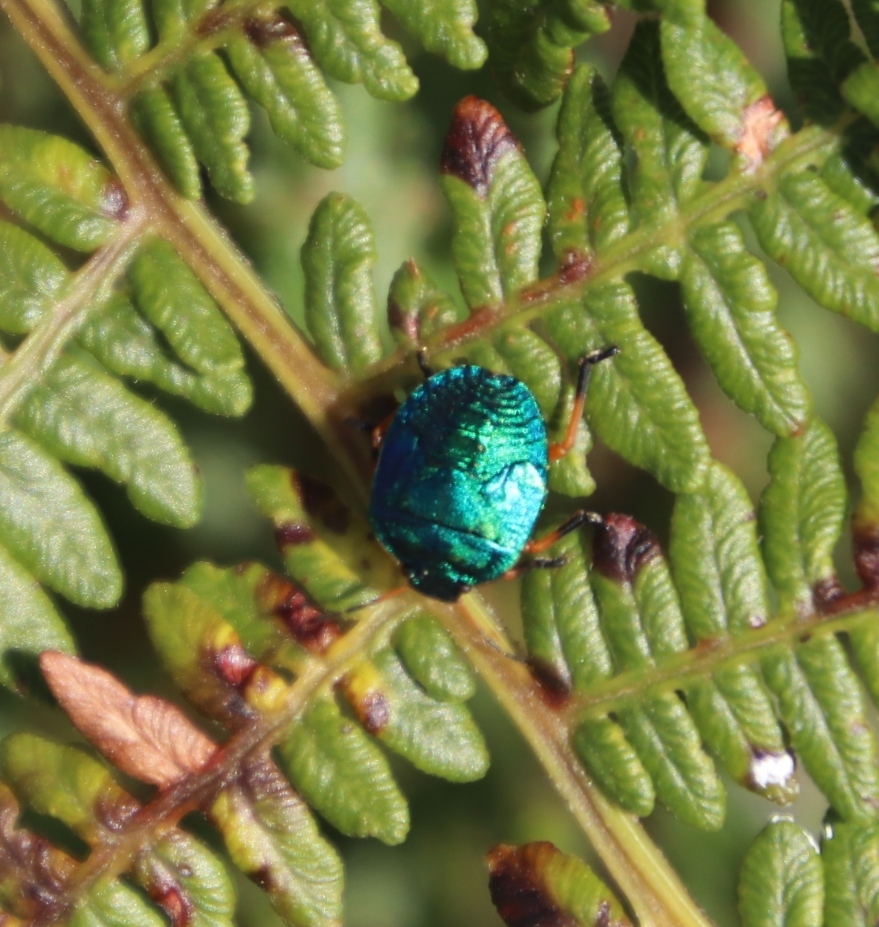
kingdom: Plantae
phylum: Tracheophyta
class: Polypodiopsida
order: Polypodiales
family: Dennstaedtiaceae
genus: Pteridium
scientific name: Pteridium aquilinum
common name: Bracken
